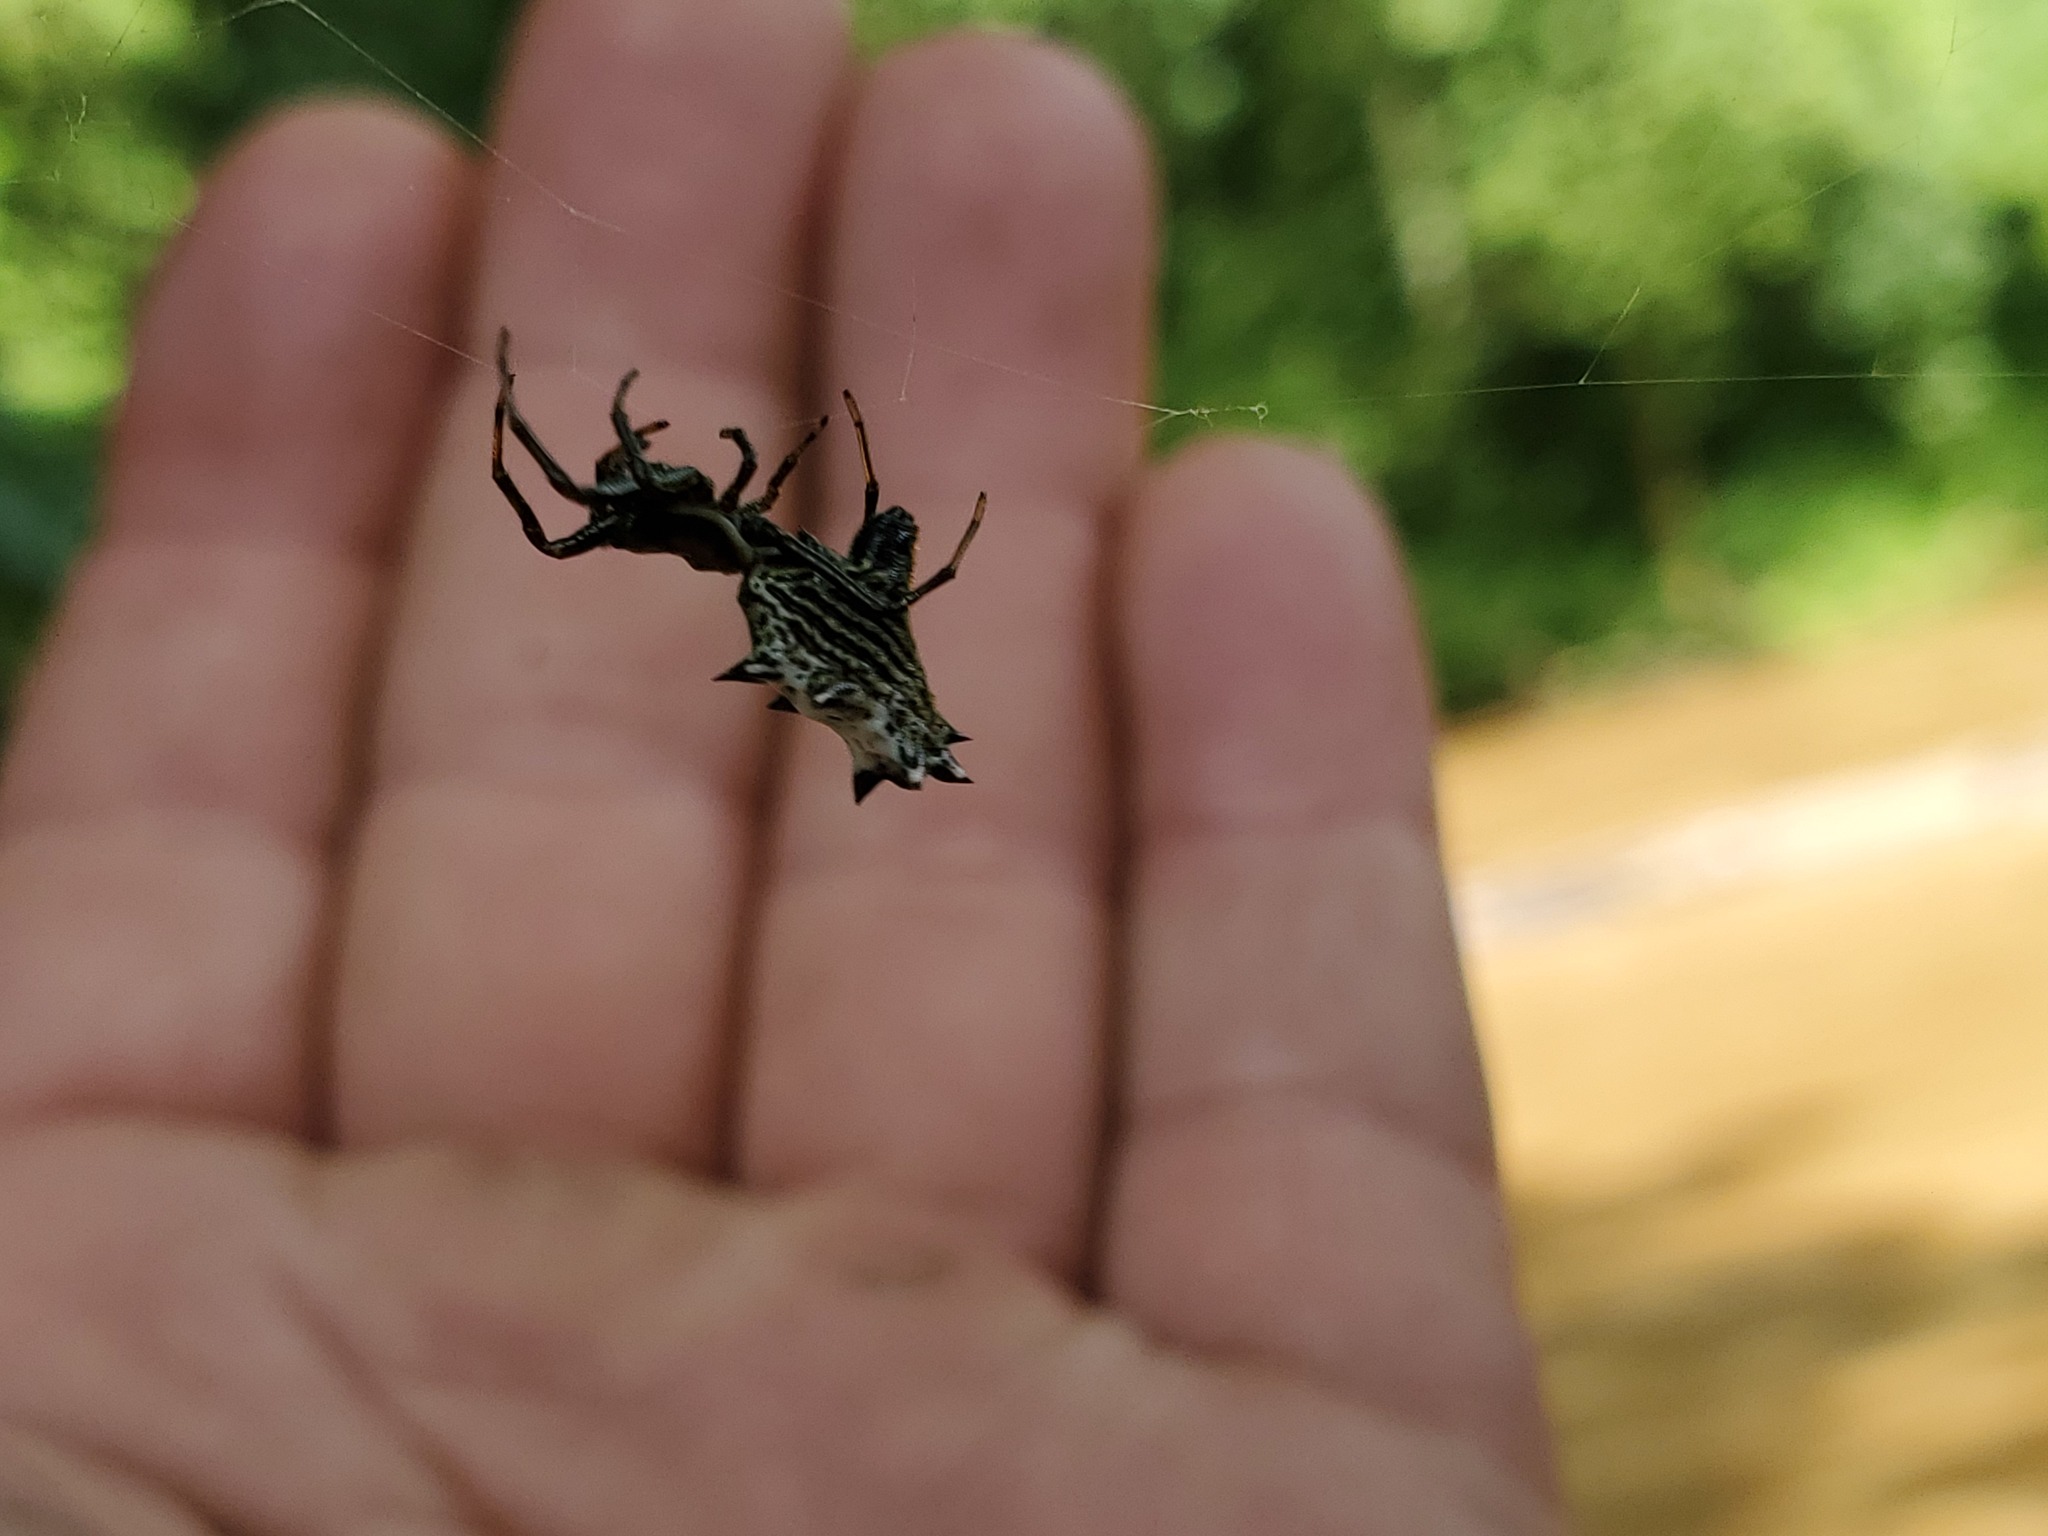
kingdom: Animalia
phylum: Arthropoda
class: Arachnida
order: Araneae
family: Araneidae
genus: Micrathena
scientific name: Micrathena gracilis
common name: Orb weavers
